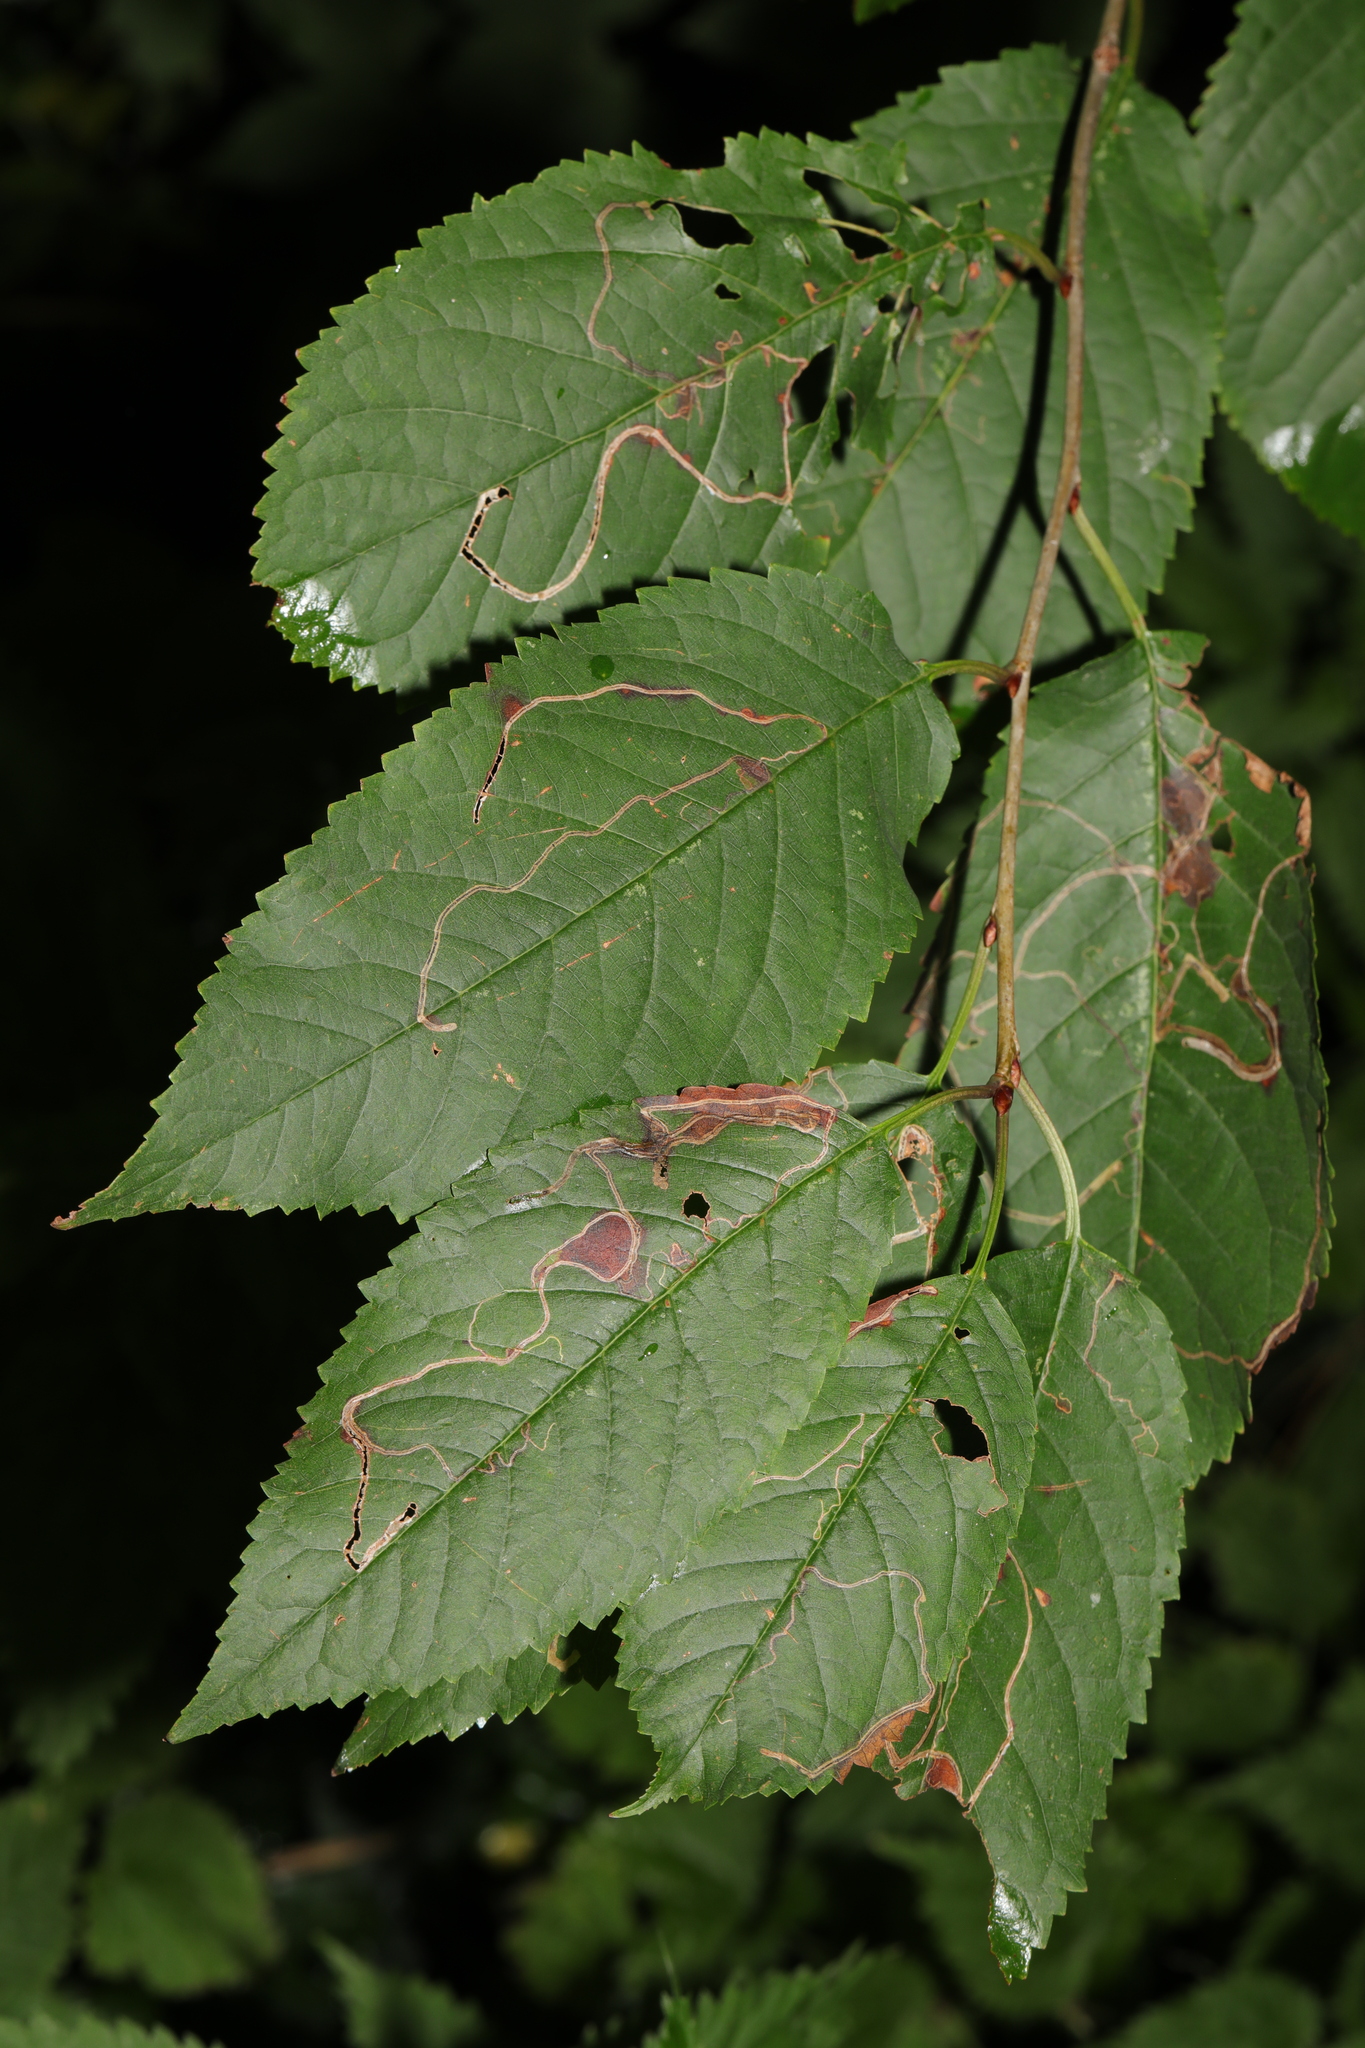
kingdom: Plantae
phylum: Tracheophyta
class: Magnoliopsida
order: Rosales
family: Rosaceae
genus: Prunus
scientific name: Prunus avium
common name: Sweet cherry
